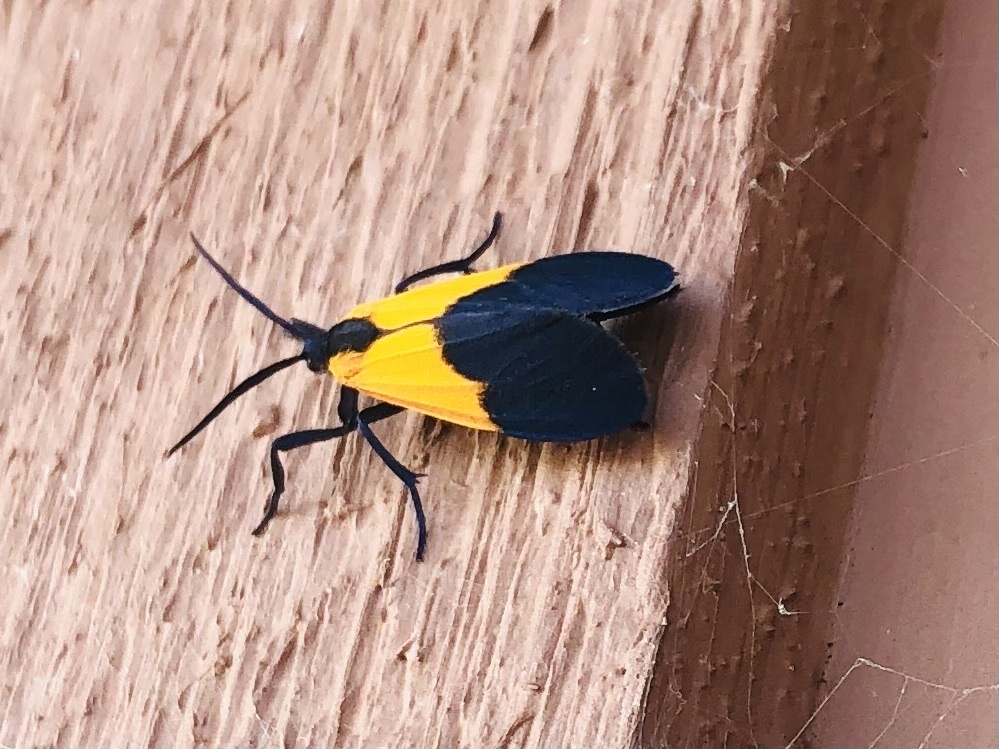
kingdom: Animalia
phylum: Arthropoda
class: Insecta
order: Lepidoptera
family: Erebidae
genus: Lycomorpha
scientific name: Lycomorpha pholus
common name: Black-and-yellow lichen moth
